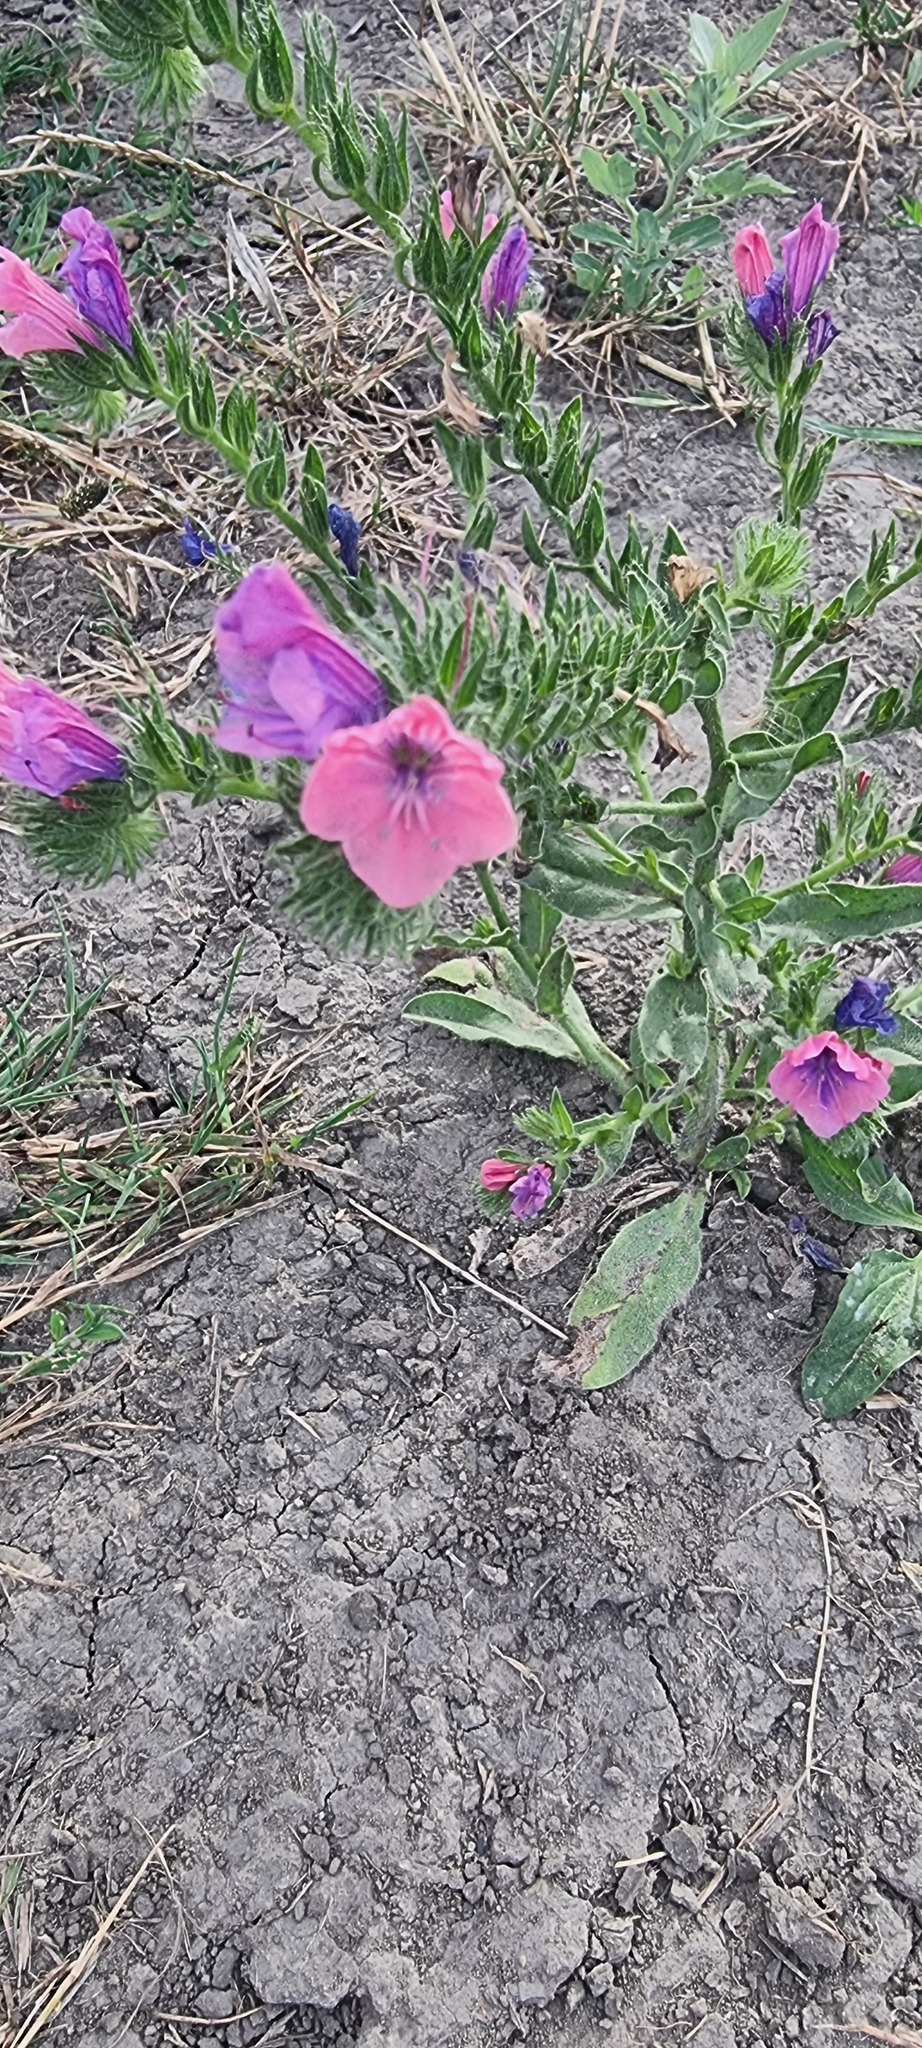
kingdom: Plantae
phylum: Tracheophyta
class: Magnoliopsida
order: Boraginales
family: Boraginaceae
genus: Echium
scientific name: Echium plantagineum
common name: Purple viper's-bugloss
